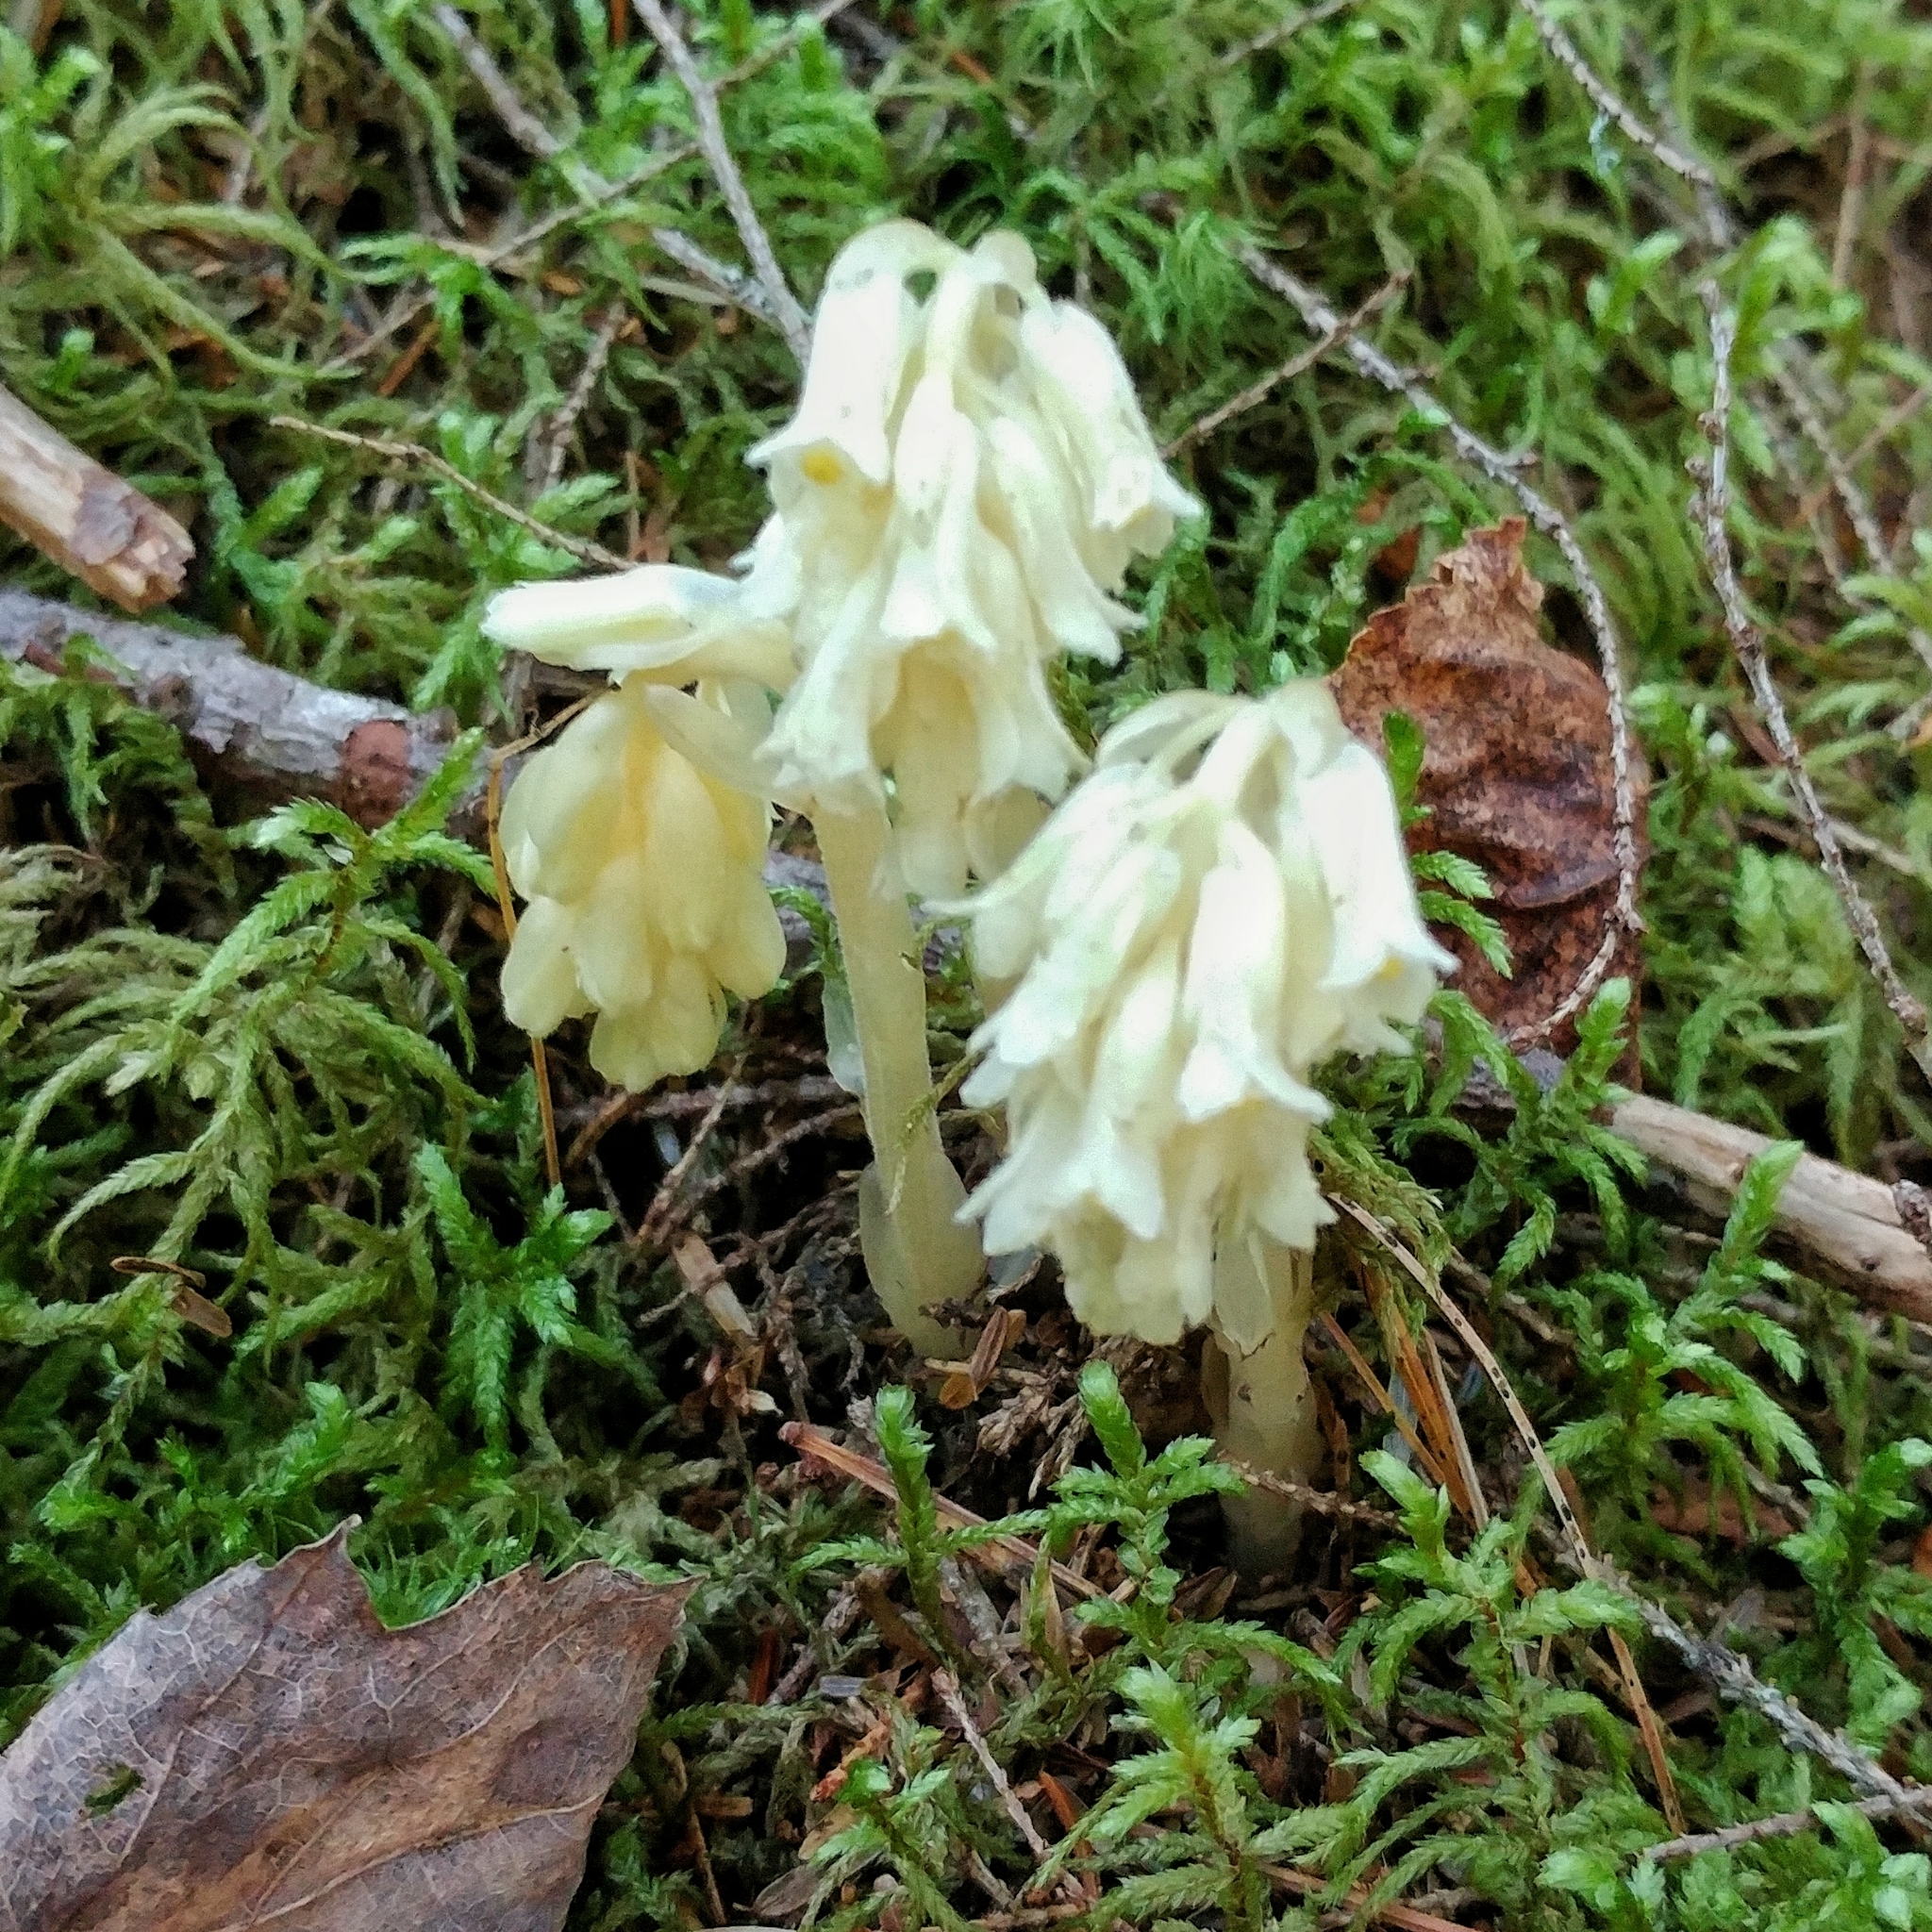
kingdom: Plantae
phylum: Tracheophyta
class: Magnoliopsida
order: Ericales
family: Ericaceae
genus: Hypopitys
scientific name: Hypopitys monotropa
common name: Yellow bird's-nest
